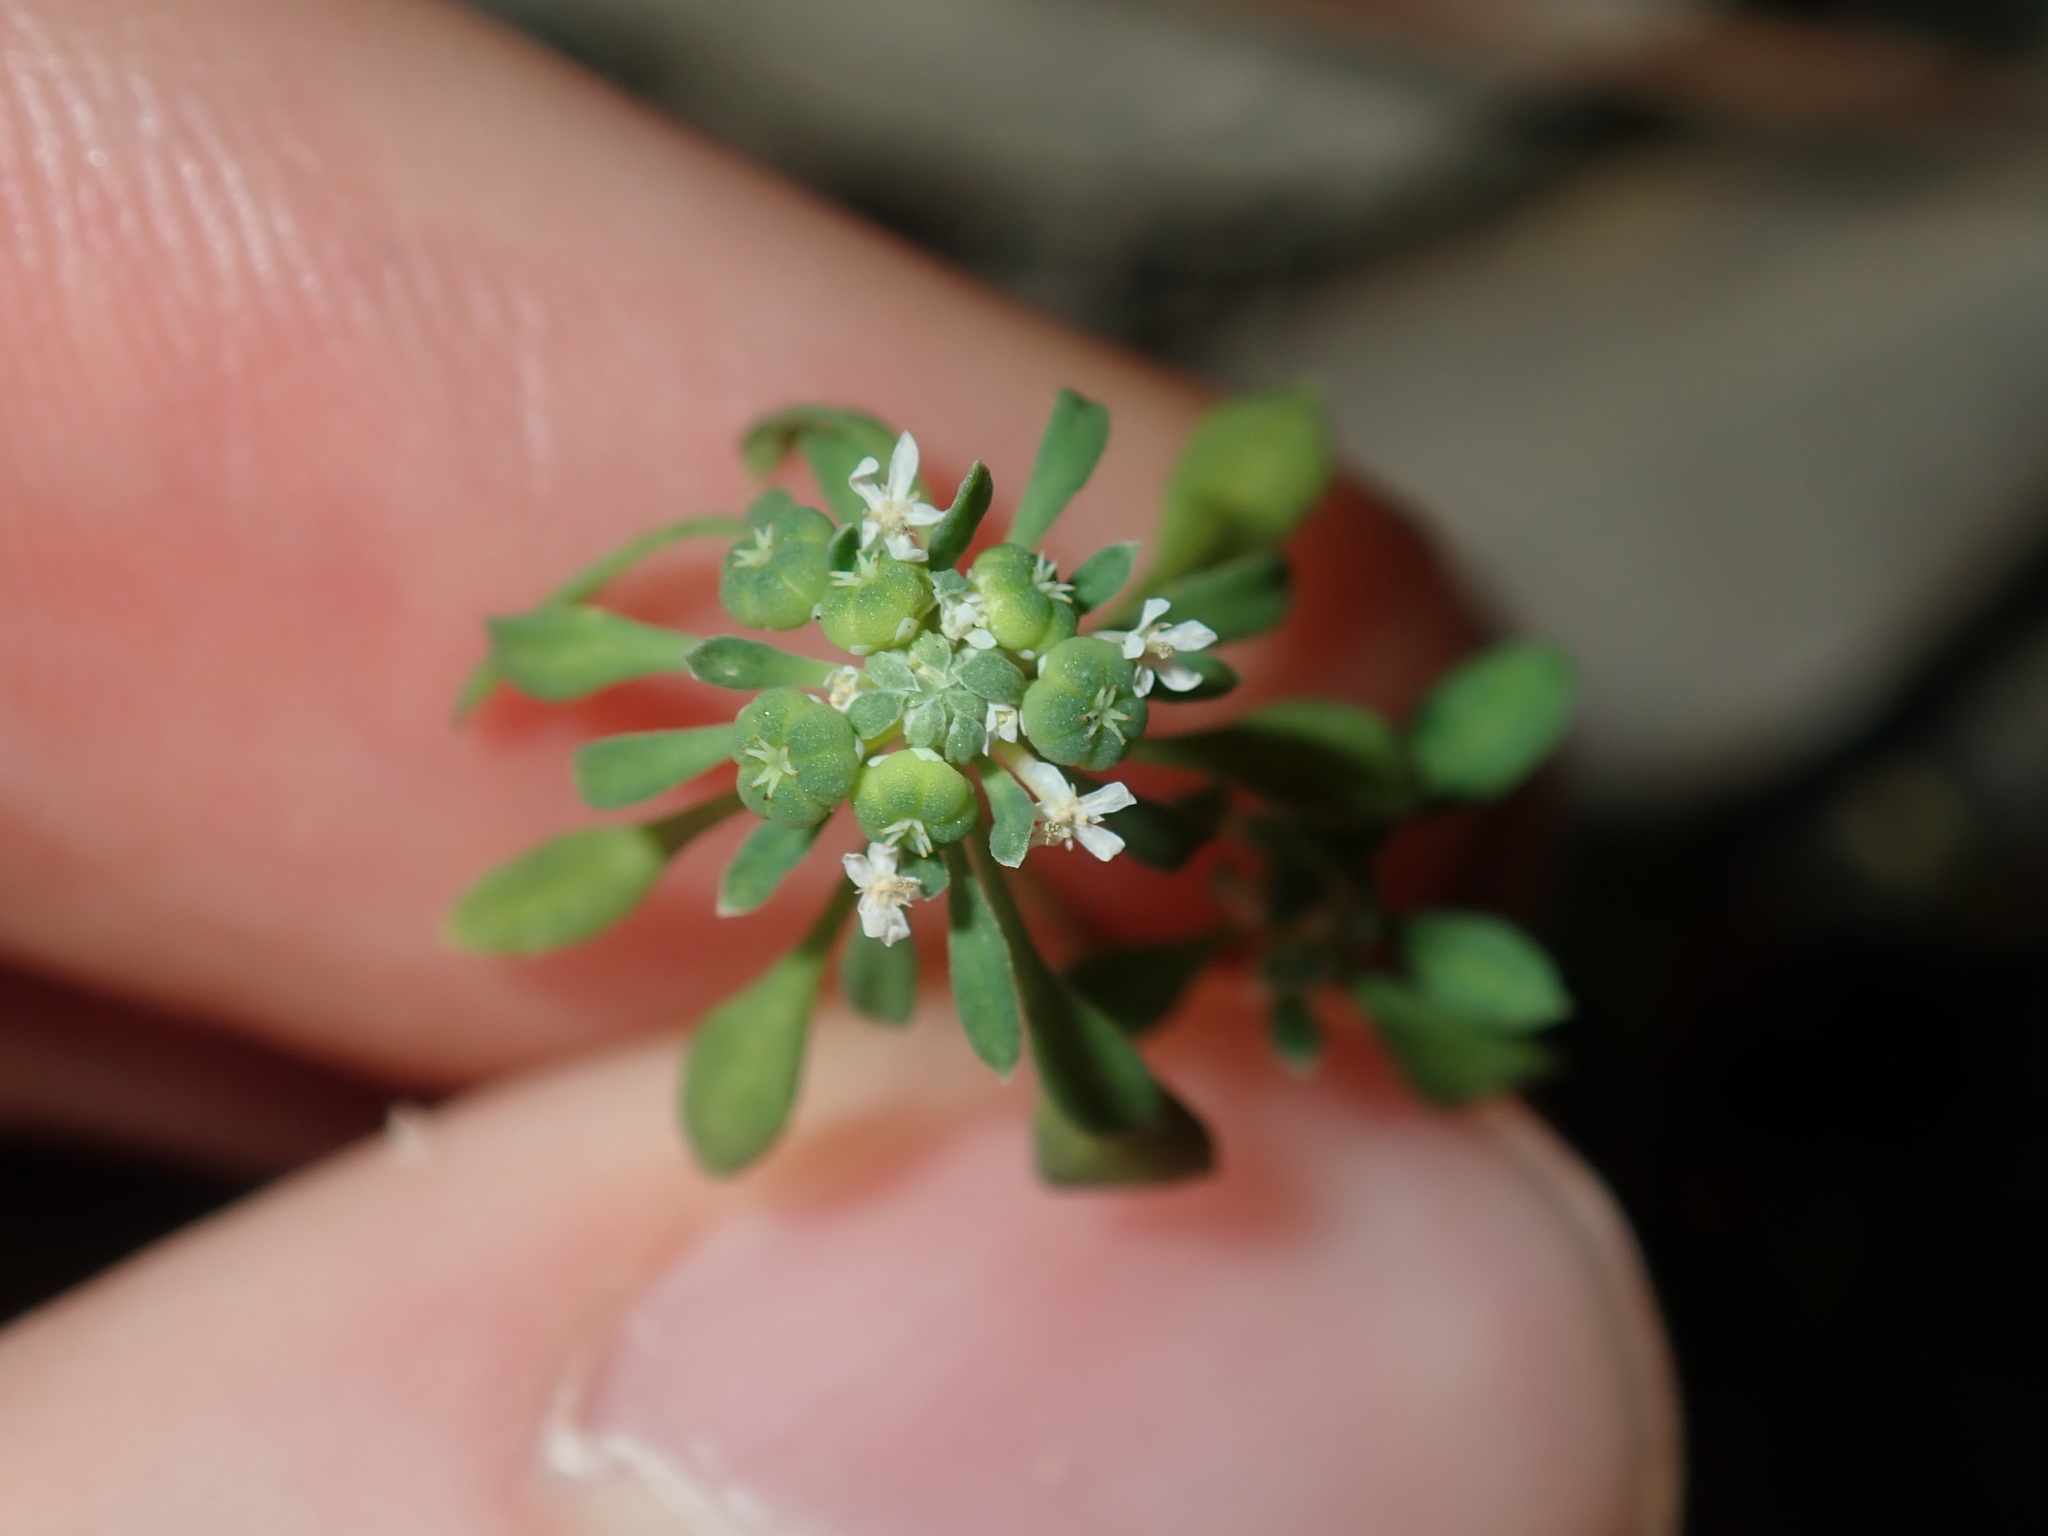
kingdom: Plantae
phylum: Tracheophyta
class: Magnoliopsida
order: Malpighiales
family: Phyllanthaceae
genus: Poranthera
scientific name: Poranthera microphylla
